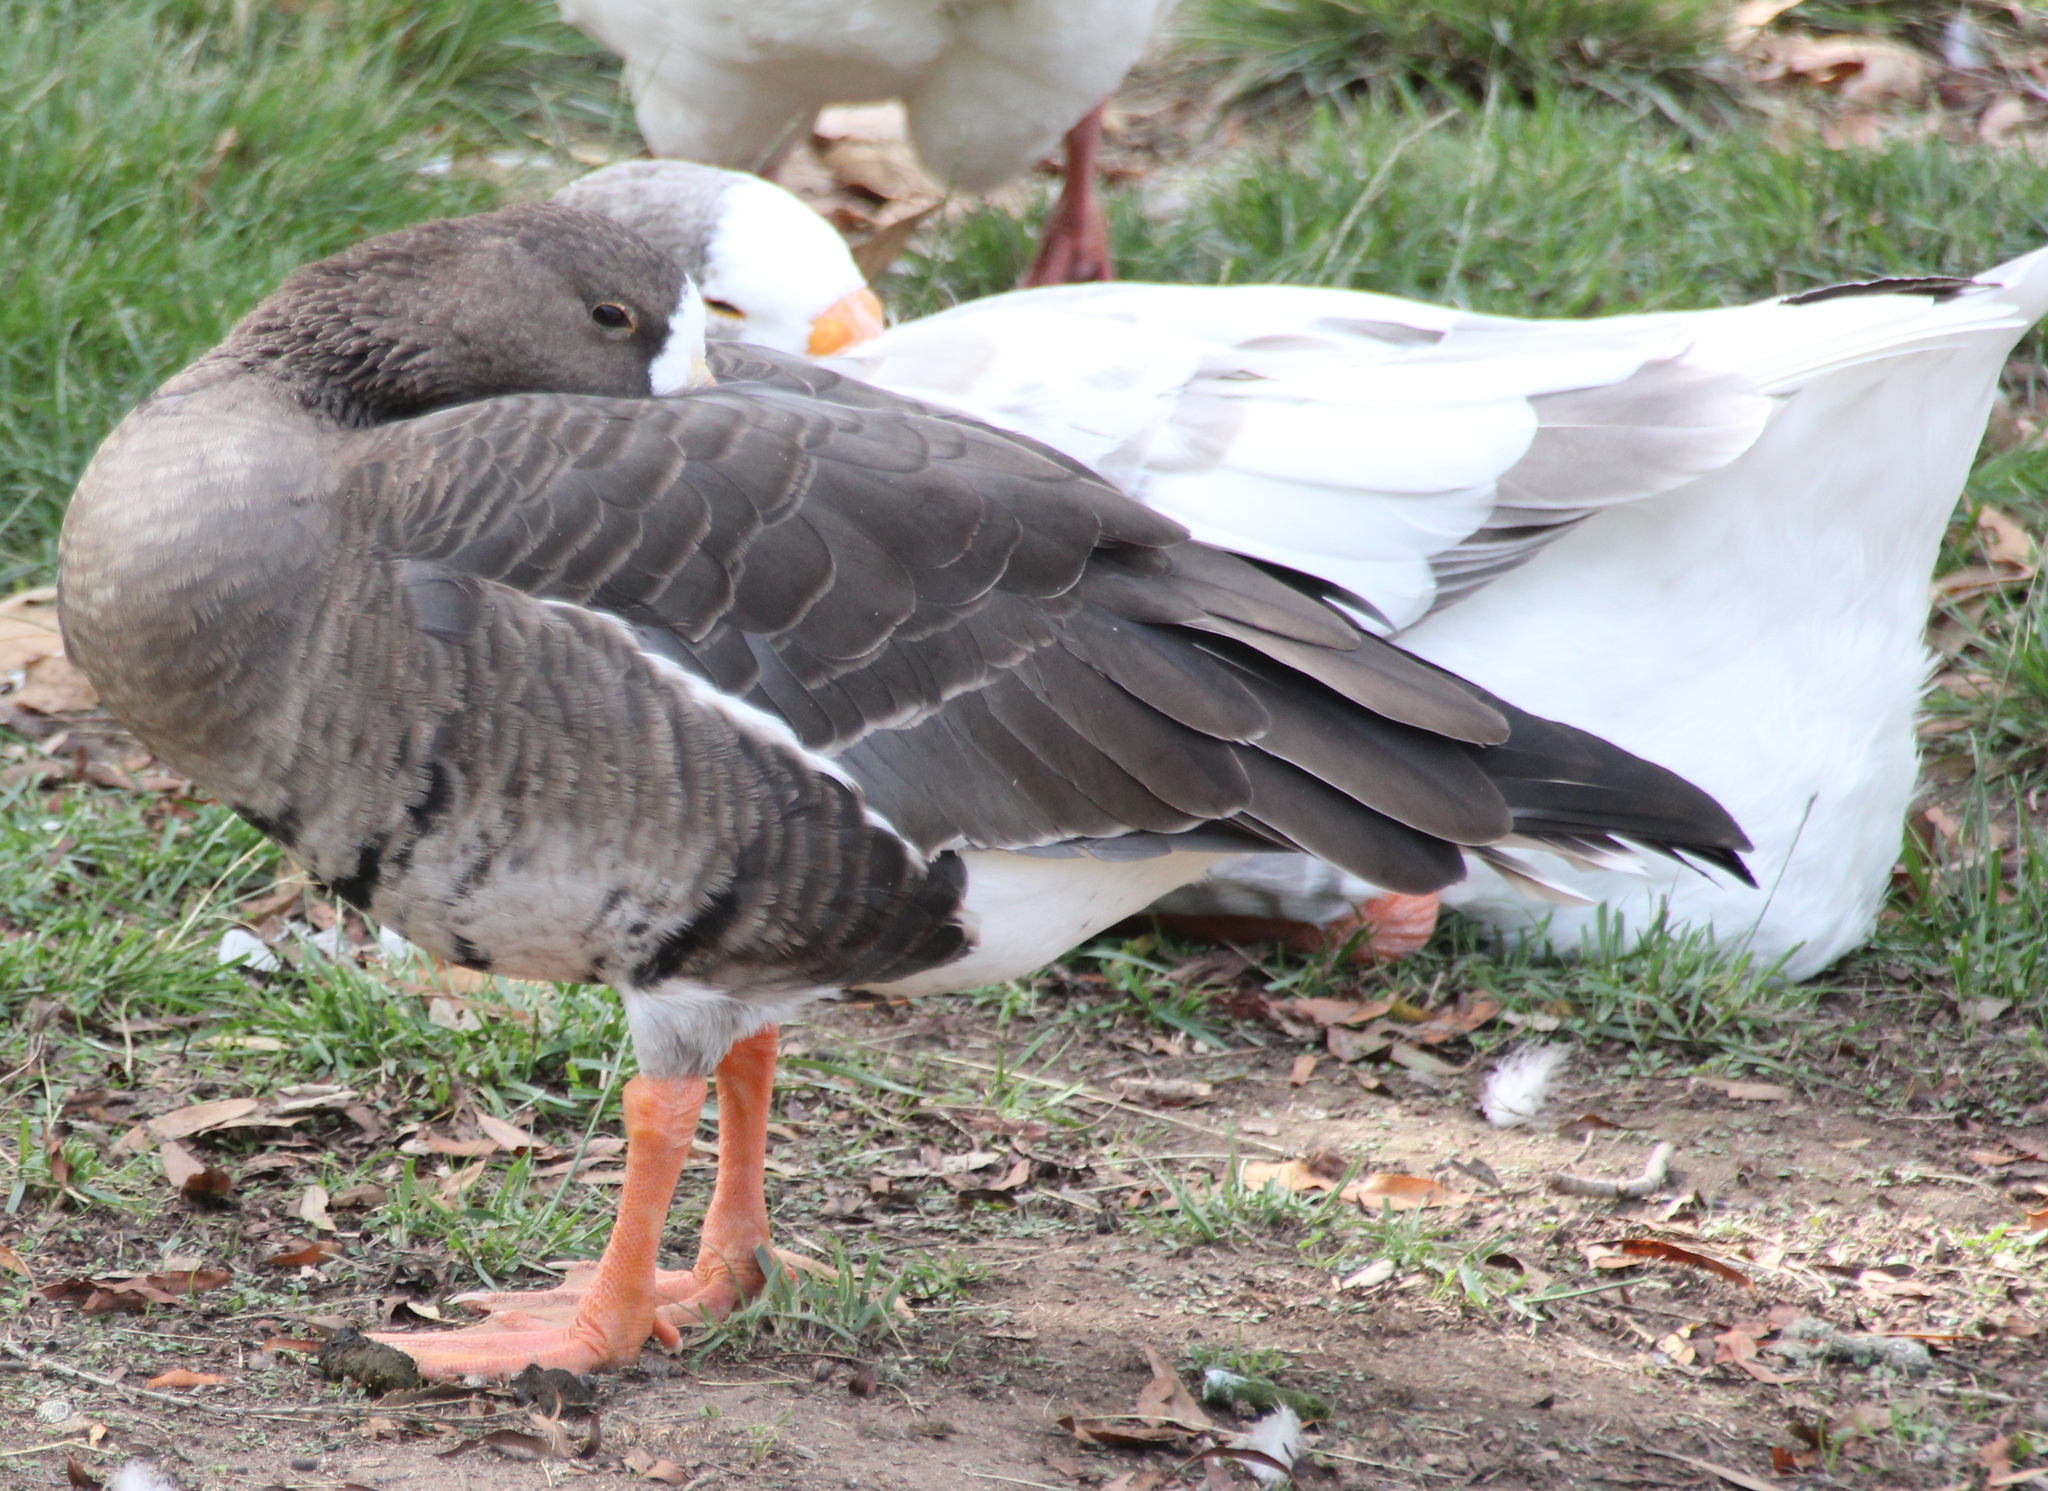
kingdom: Animalia
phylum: Chordata
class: Aves
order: Anseriformes
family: Anatidae
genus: Anser
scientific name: Anser albifrons
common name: Greater white-fronted goose
